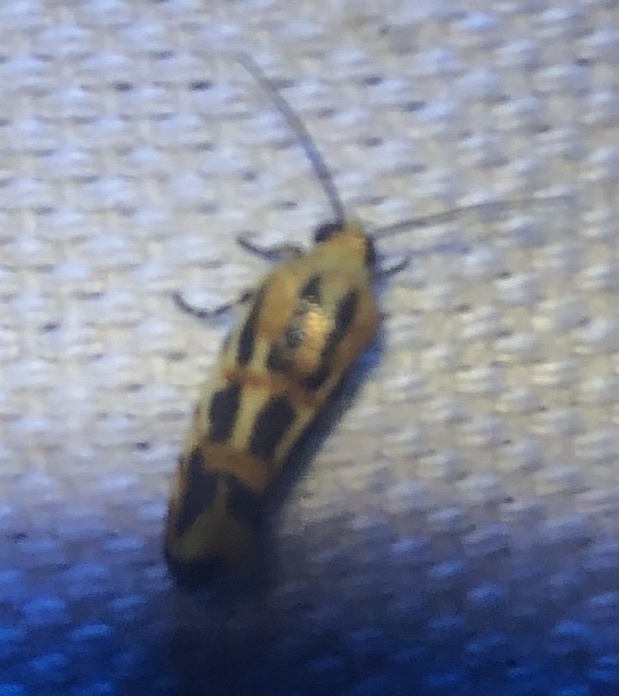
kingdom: Animalia
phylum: Arthropoda
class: Insecta
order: Lepidoptera
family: Noctuidae
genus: Acontia
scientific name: Acontia leo
